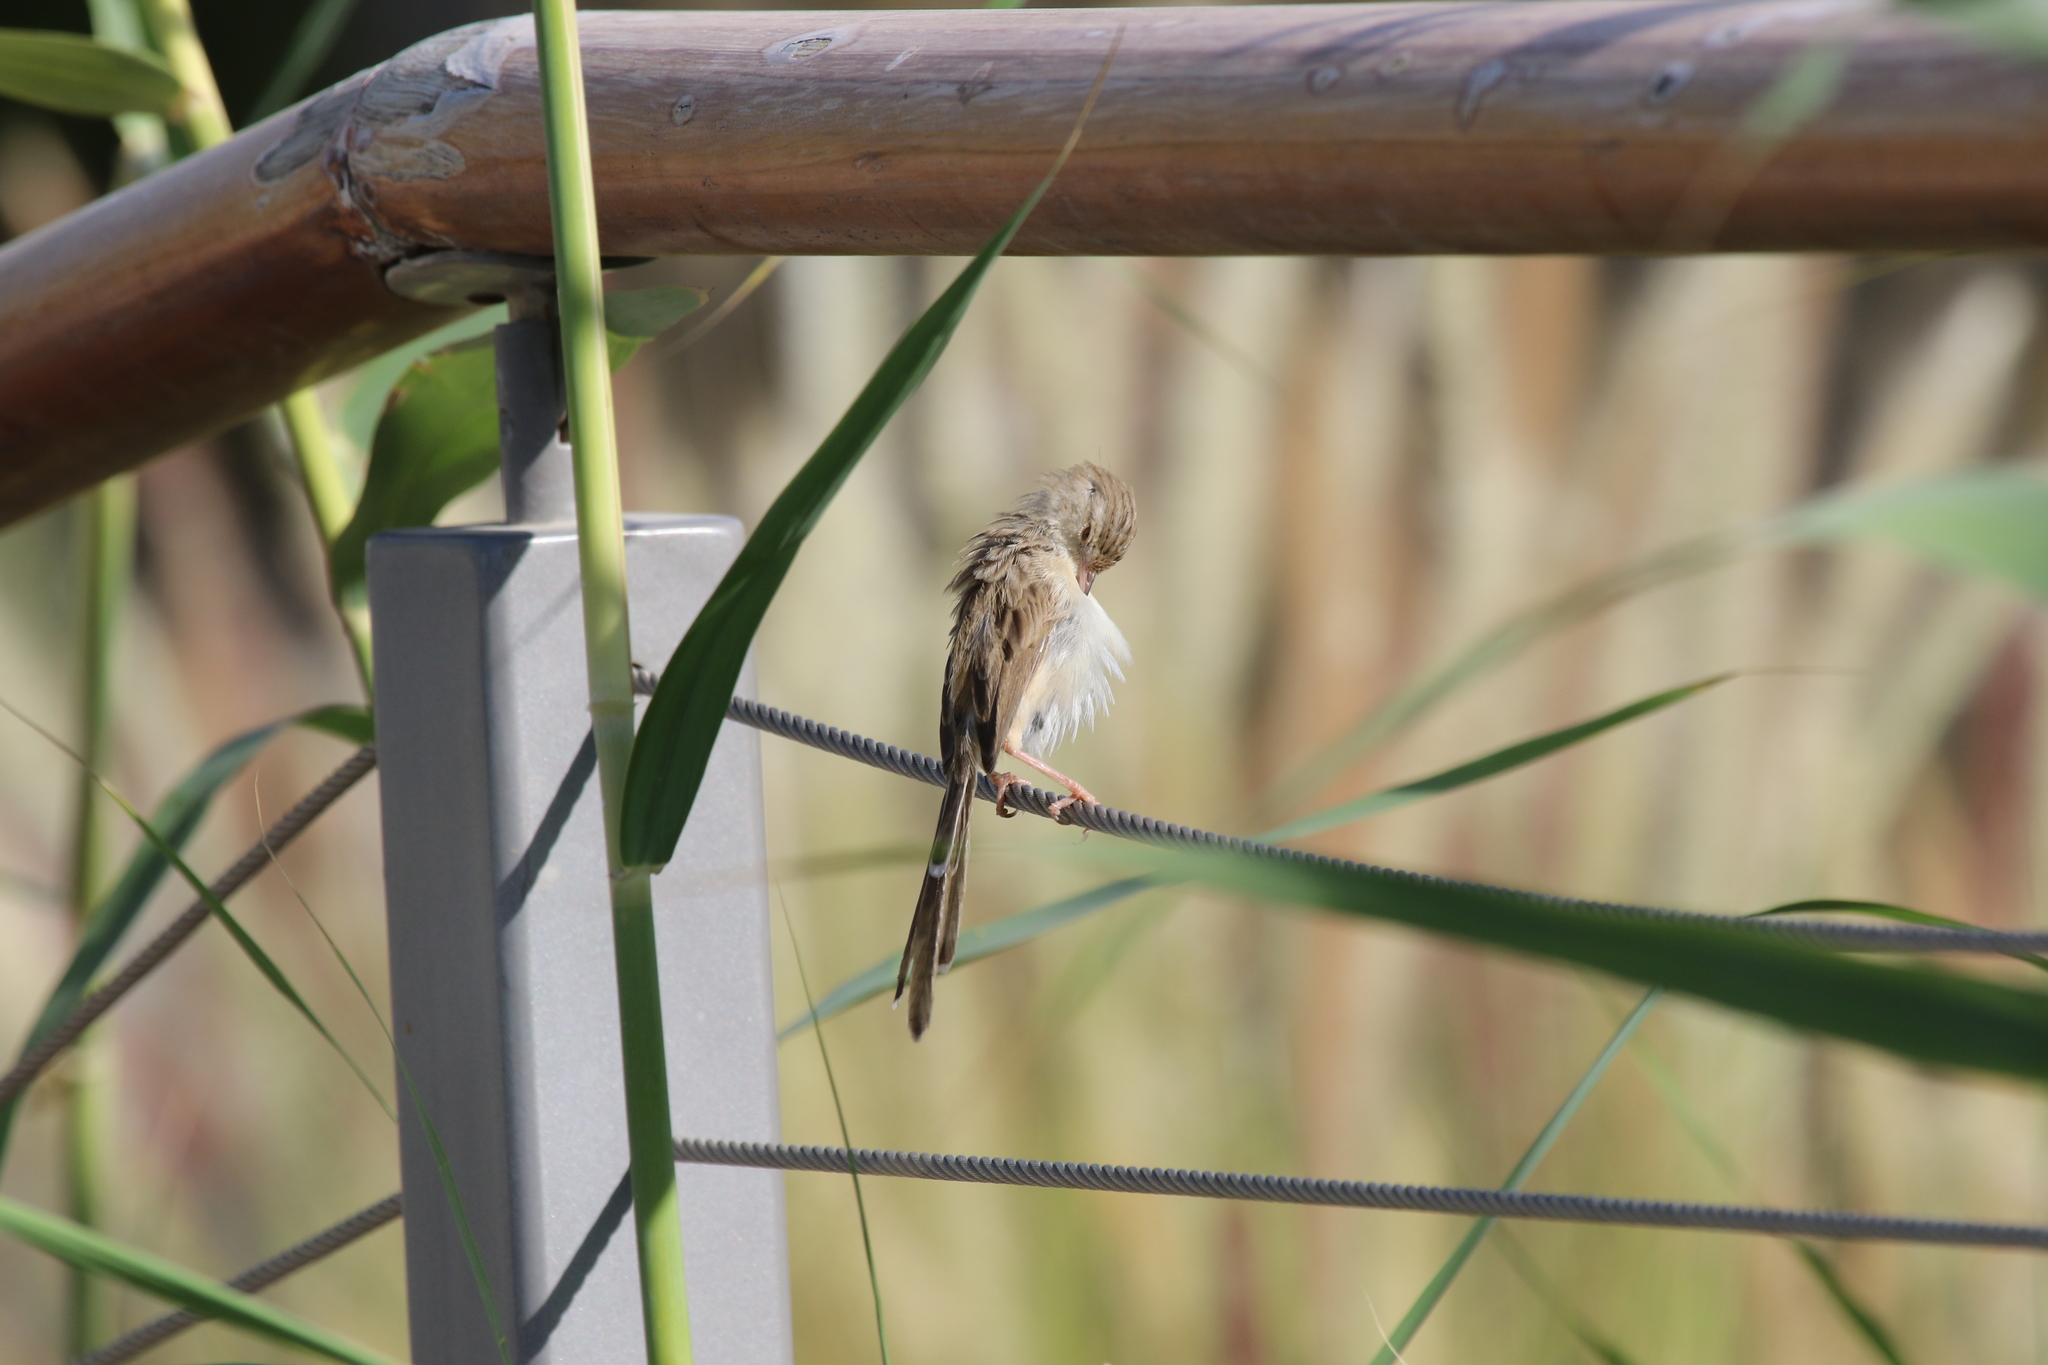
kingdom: Animalia
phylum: Chordata
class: Aves
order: Passeriformes
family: Cisticolidae
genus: Prinia
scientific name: Prinia lepida
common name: Delicate prinia
